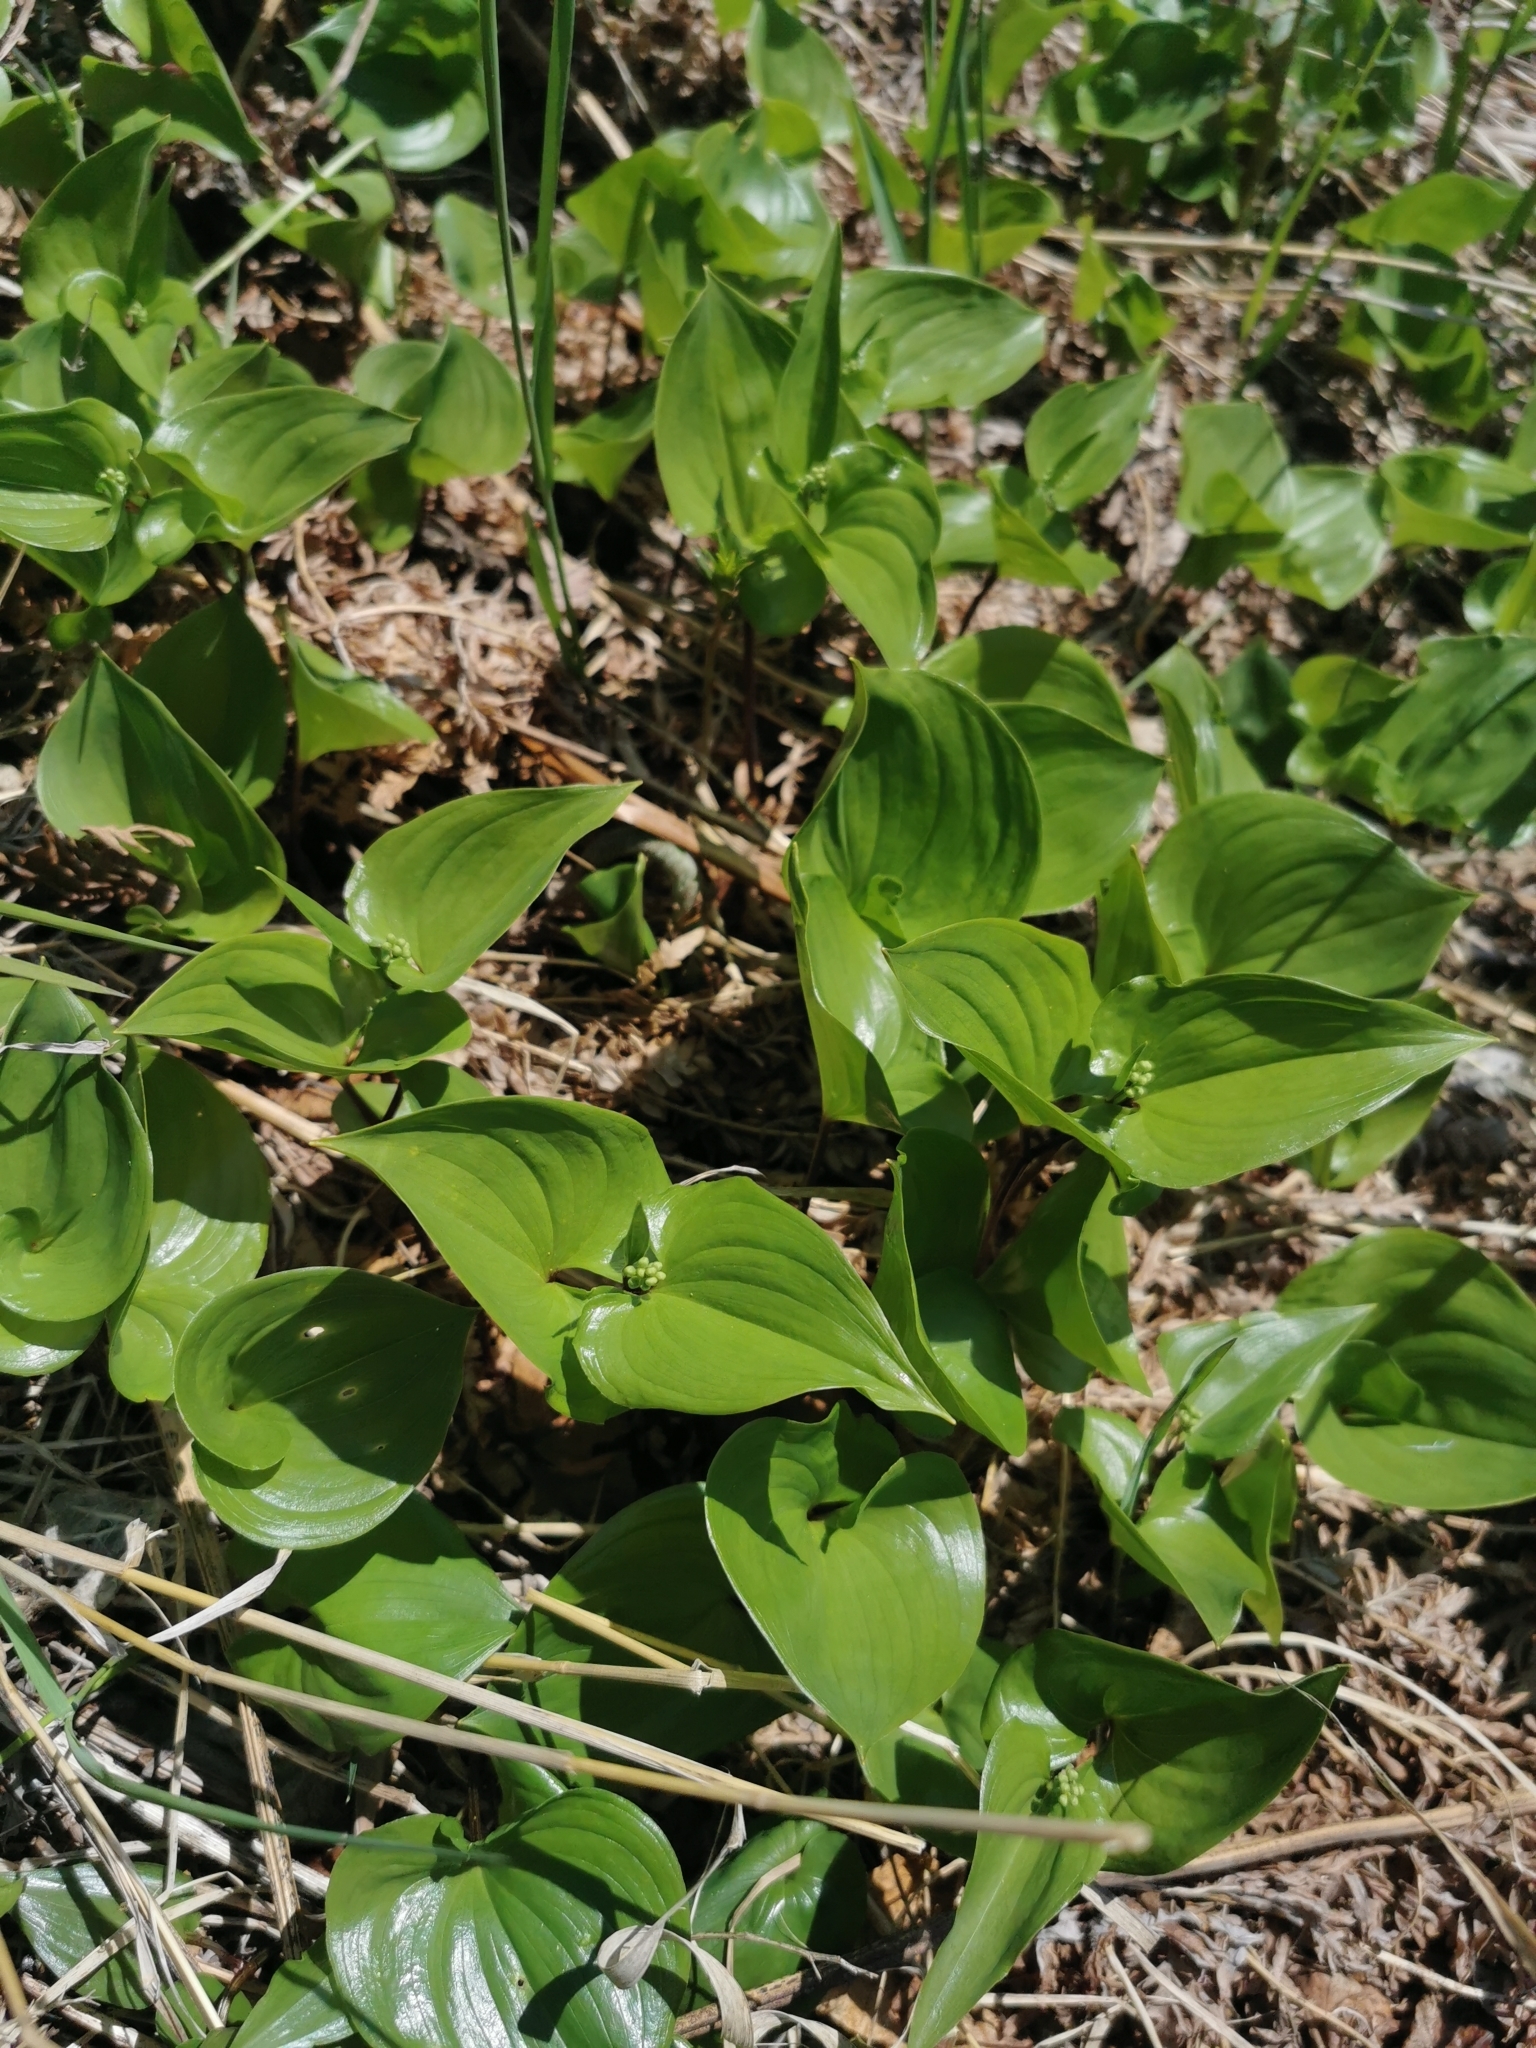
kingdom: Plantae
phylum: Tracheophyta
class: Liliopsida
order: Asparagales
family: Asparagaceae
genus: Maianthemum
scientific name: Maianthemum bifolium
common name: May lily
